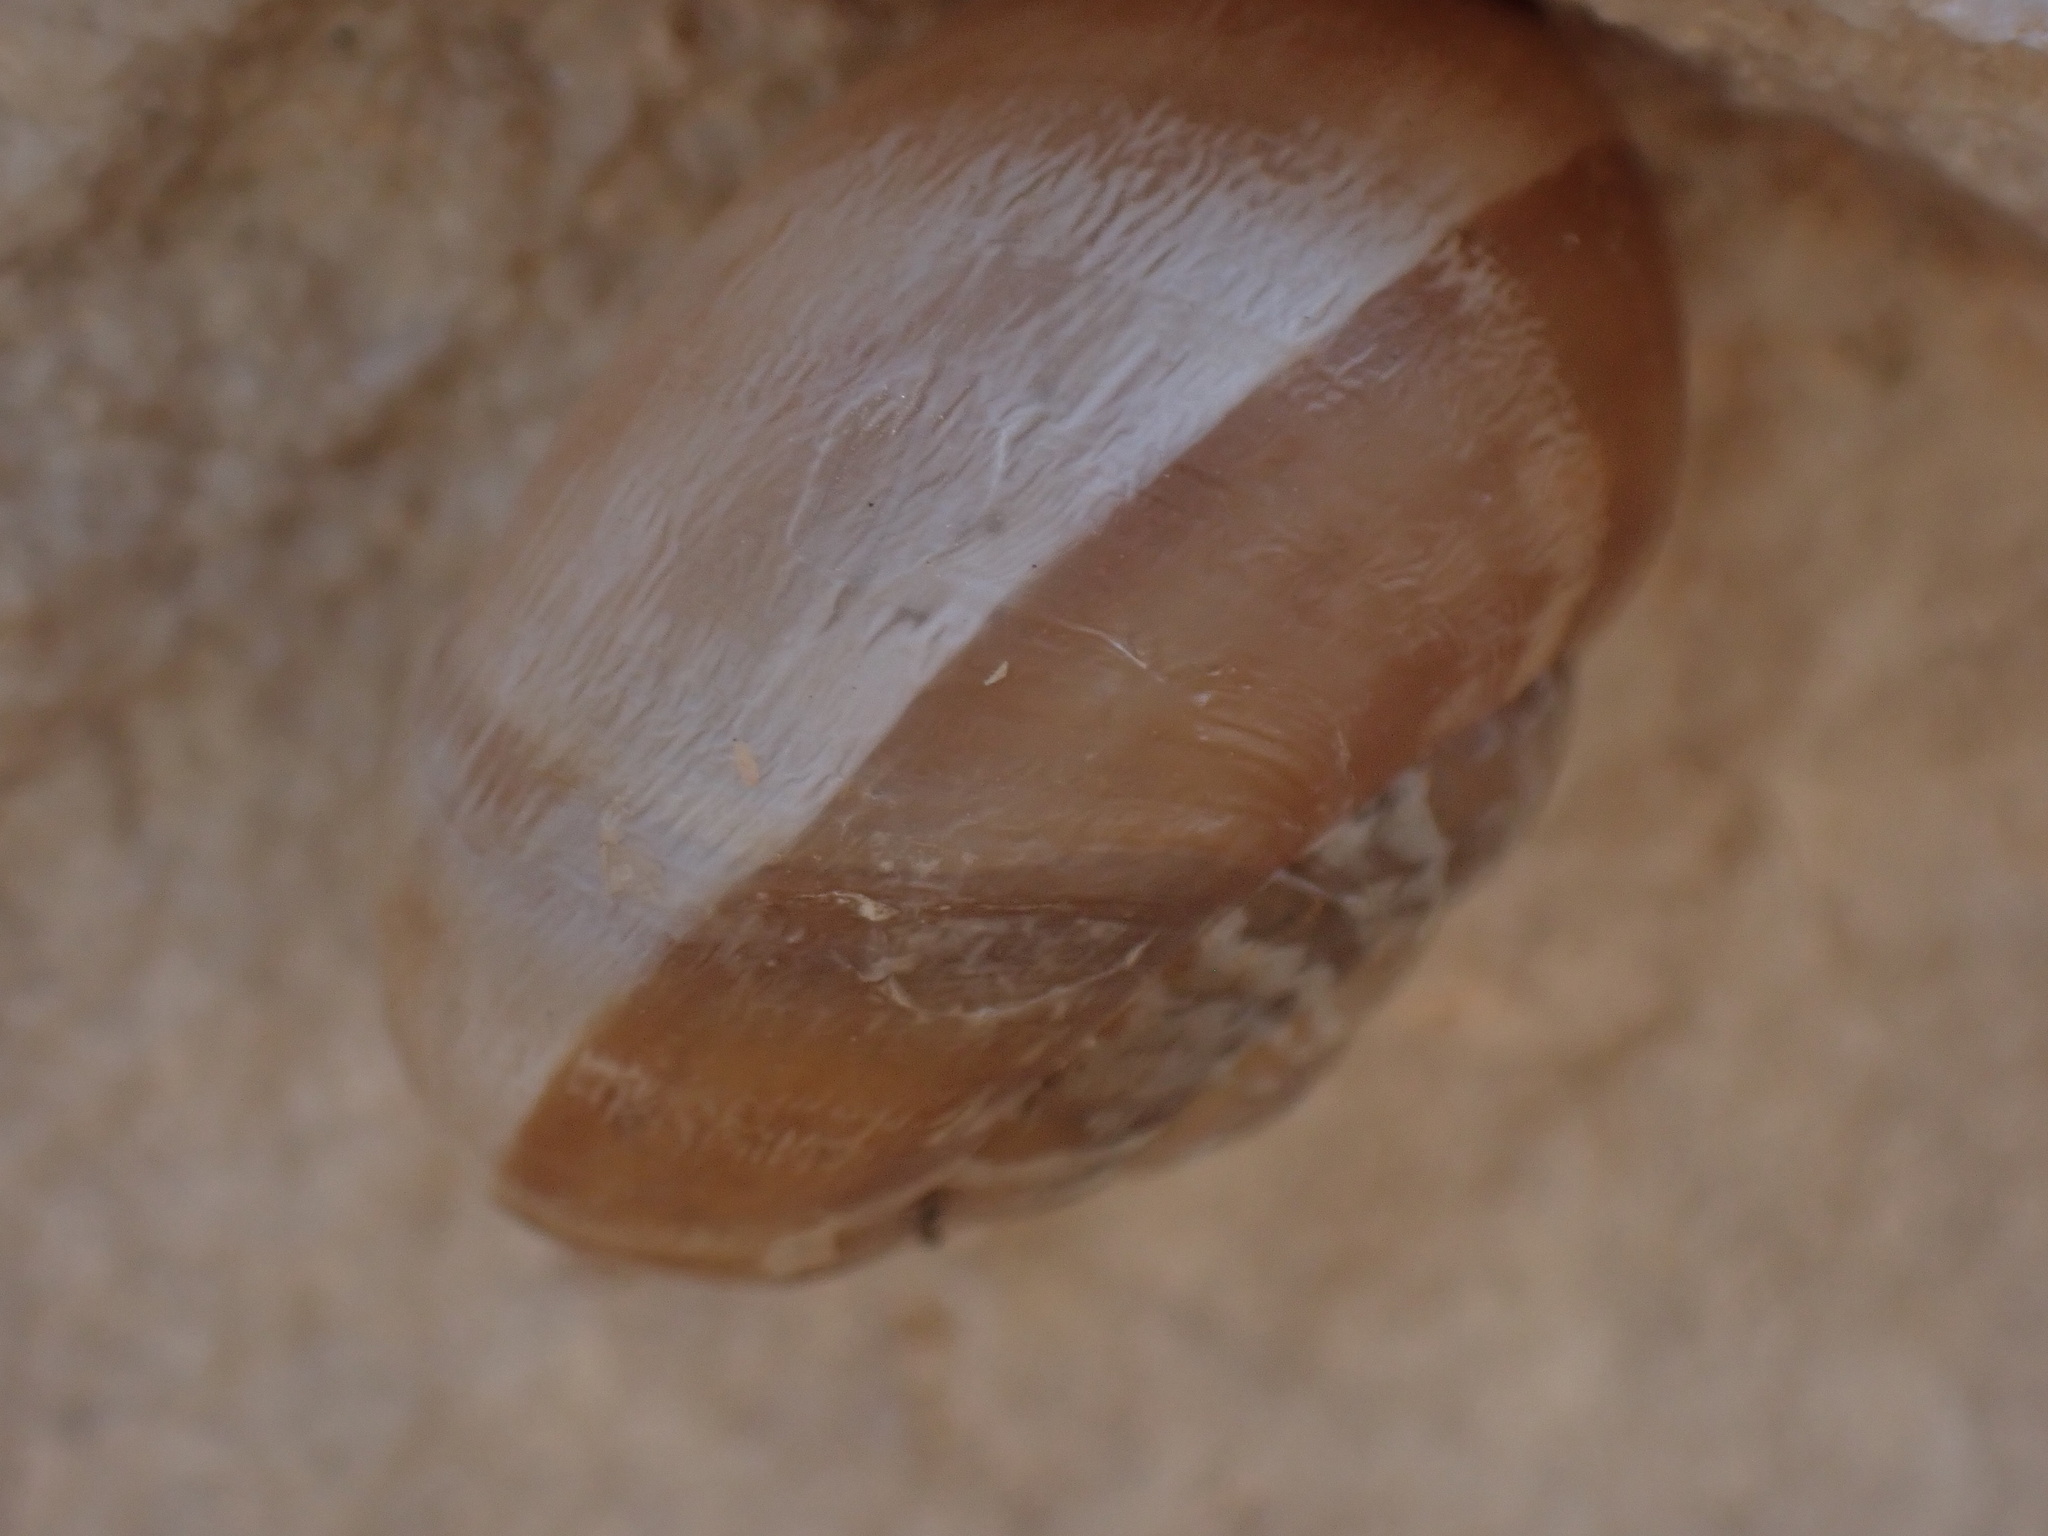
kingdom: Animalia
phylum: Mollusca
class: Gastropoda
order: Stylommatophora
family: Helicidae
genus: Eobania
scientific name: Eobania vermiculata
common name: Chocolateband snail
